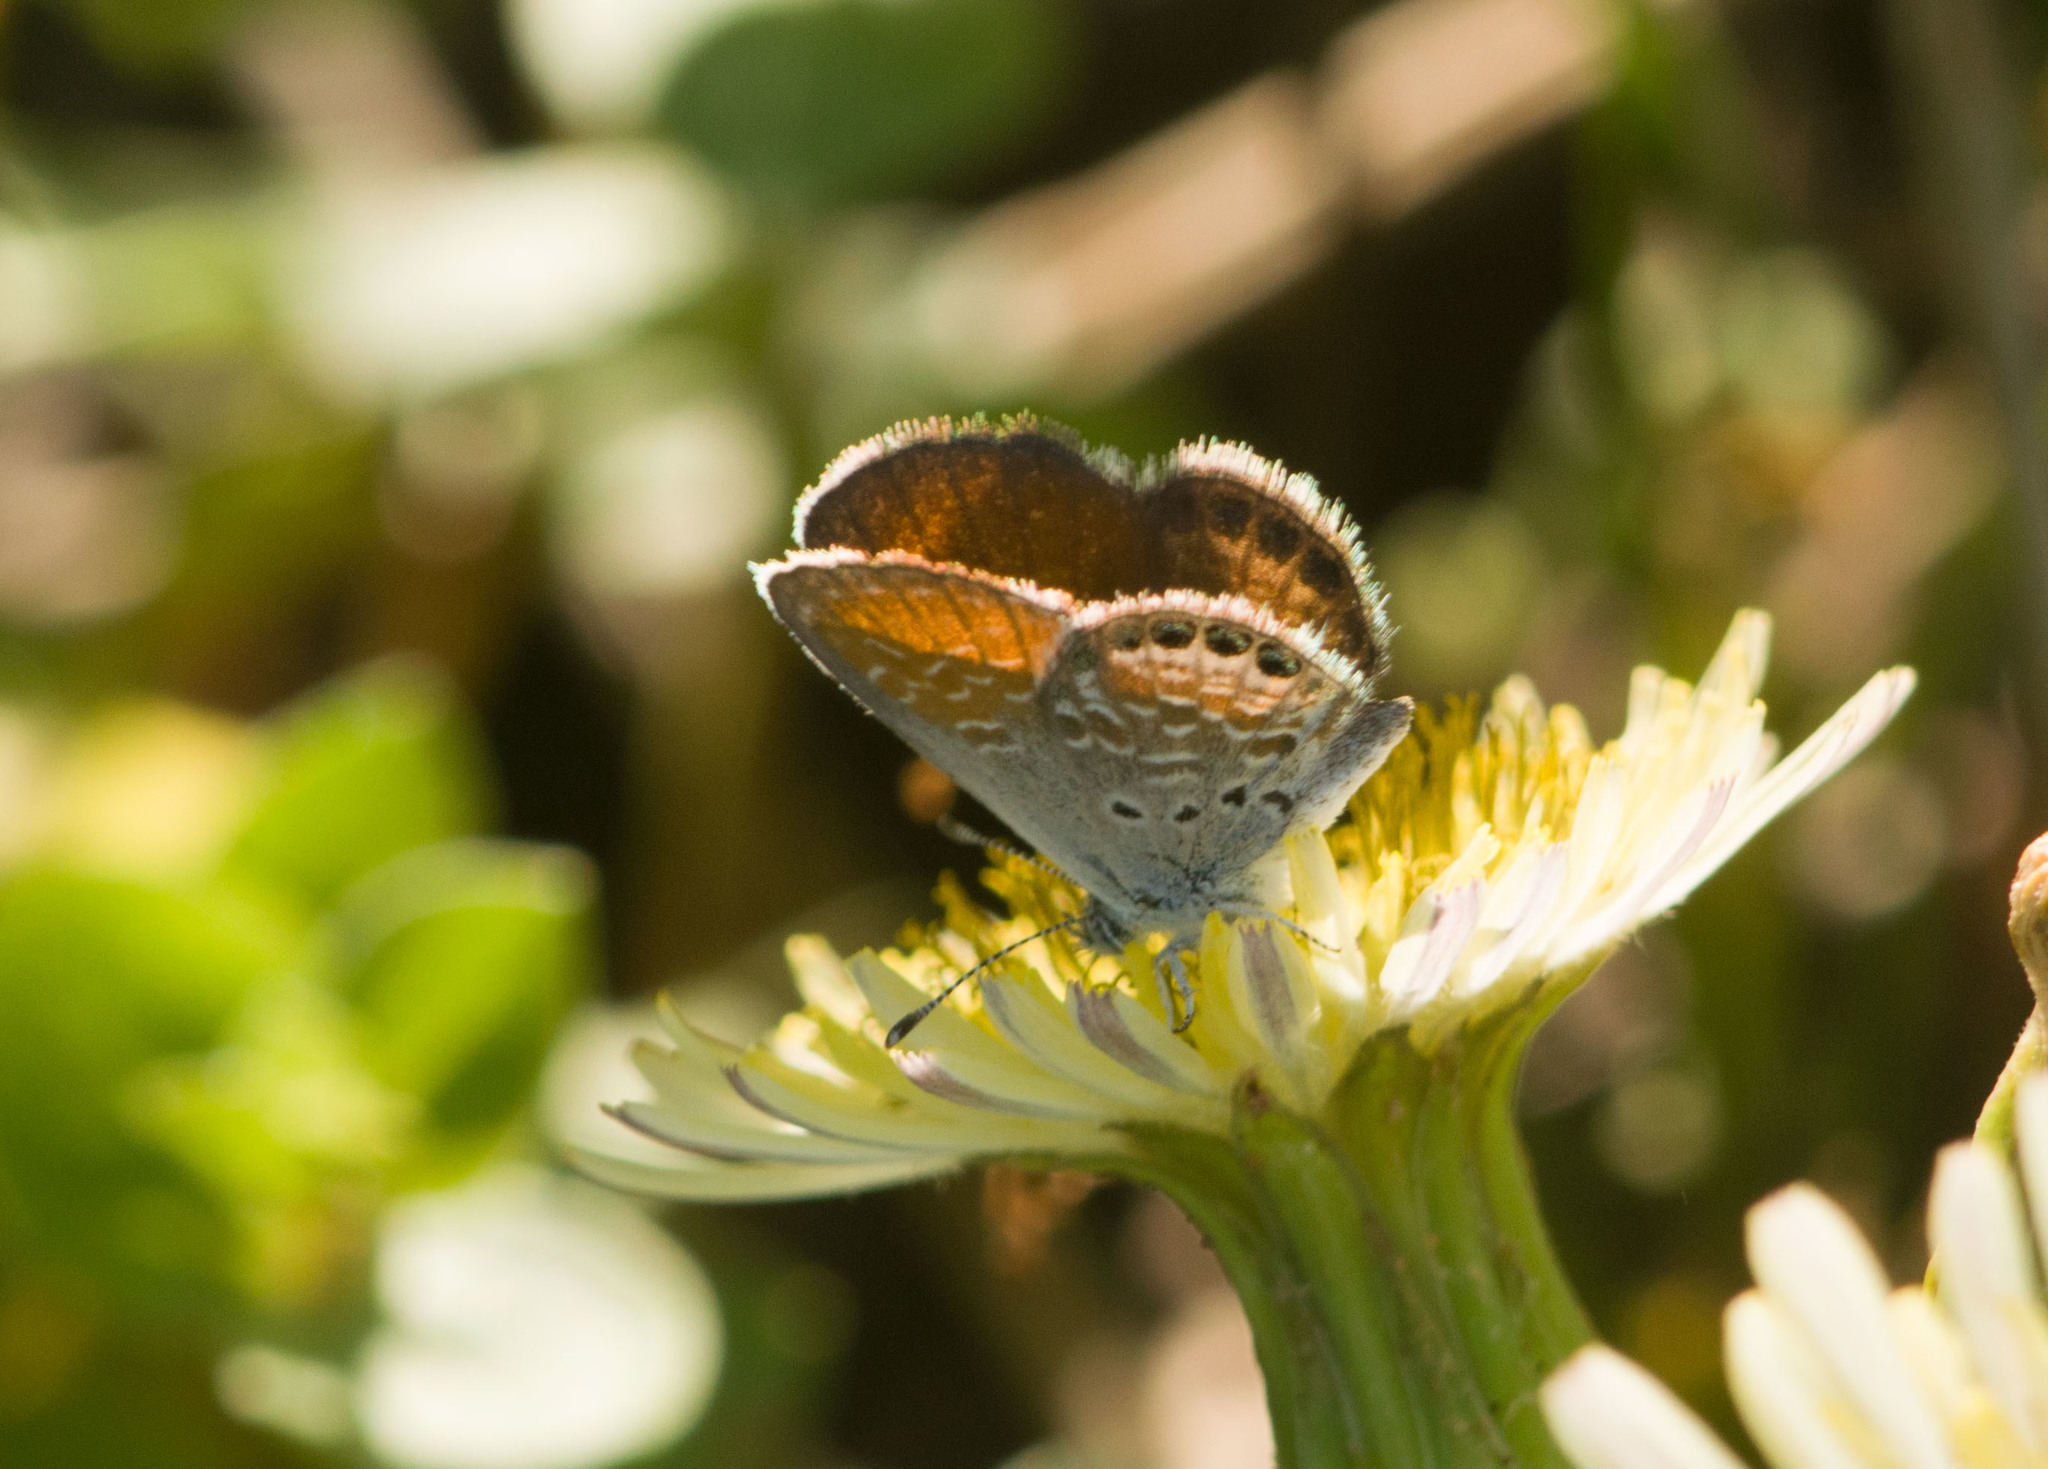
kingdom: Animalia
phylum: Arthropoda
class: Insecta
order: Lepidoptera
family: Lycaenidae
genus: Brephidium
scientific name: Brephidium exilis
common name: Pygmy blue
